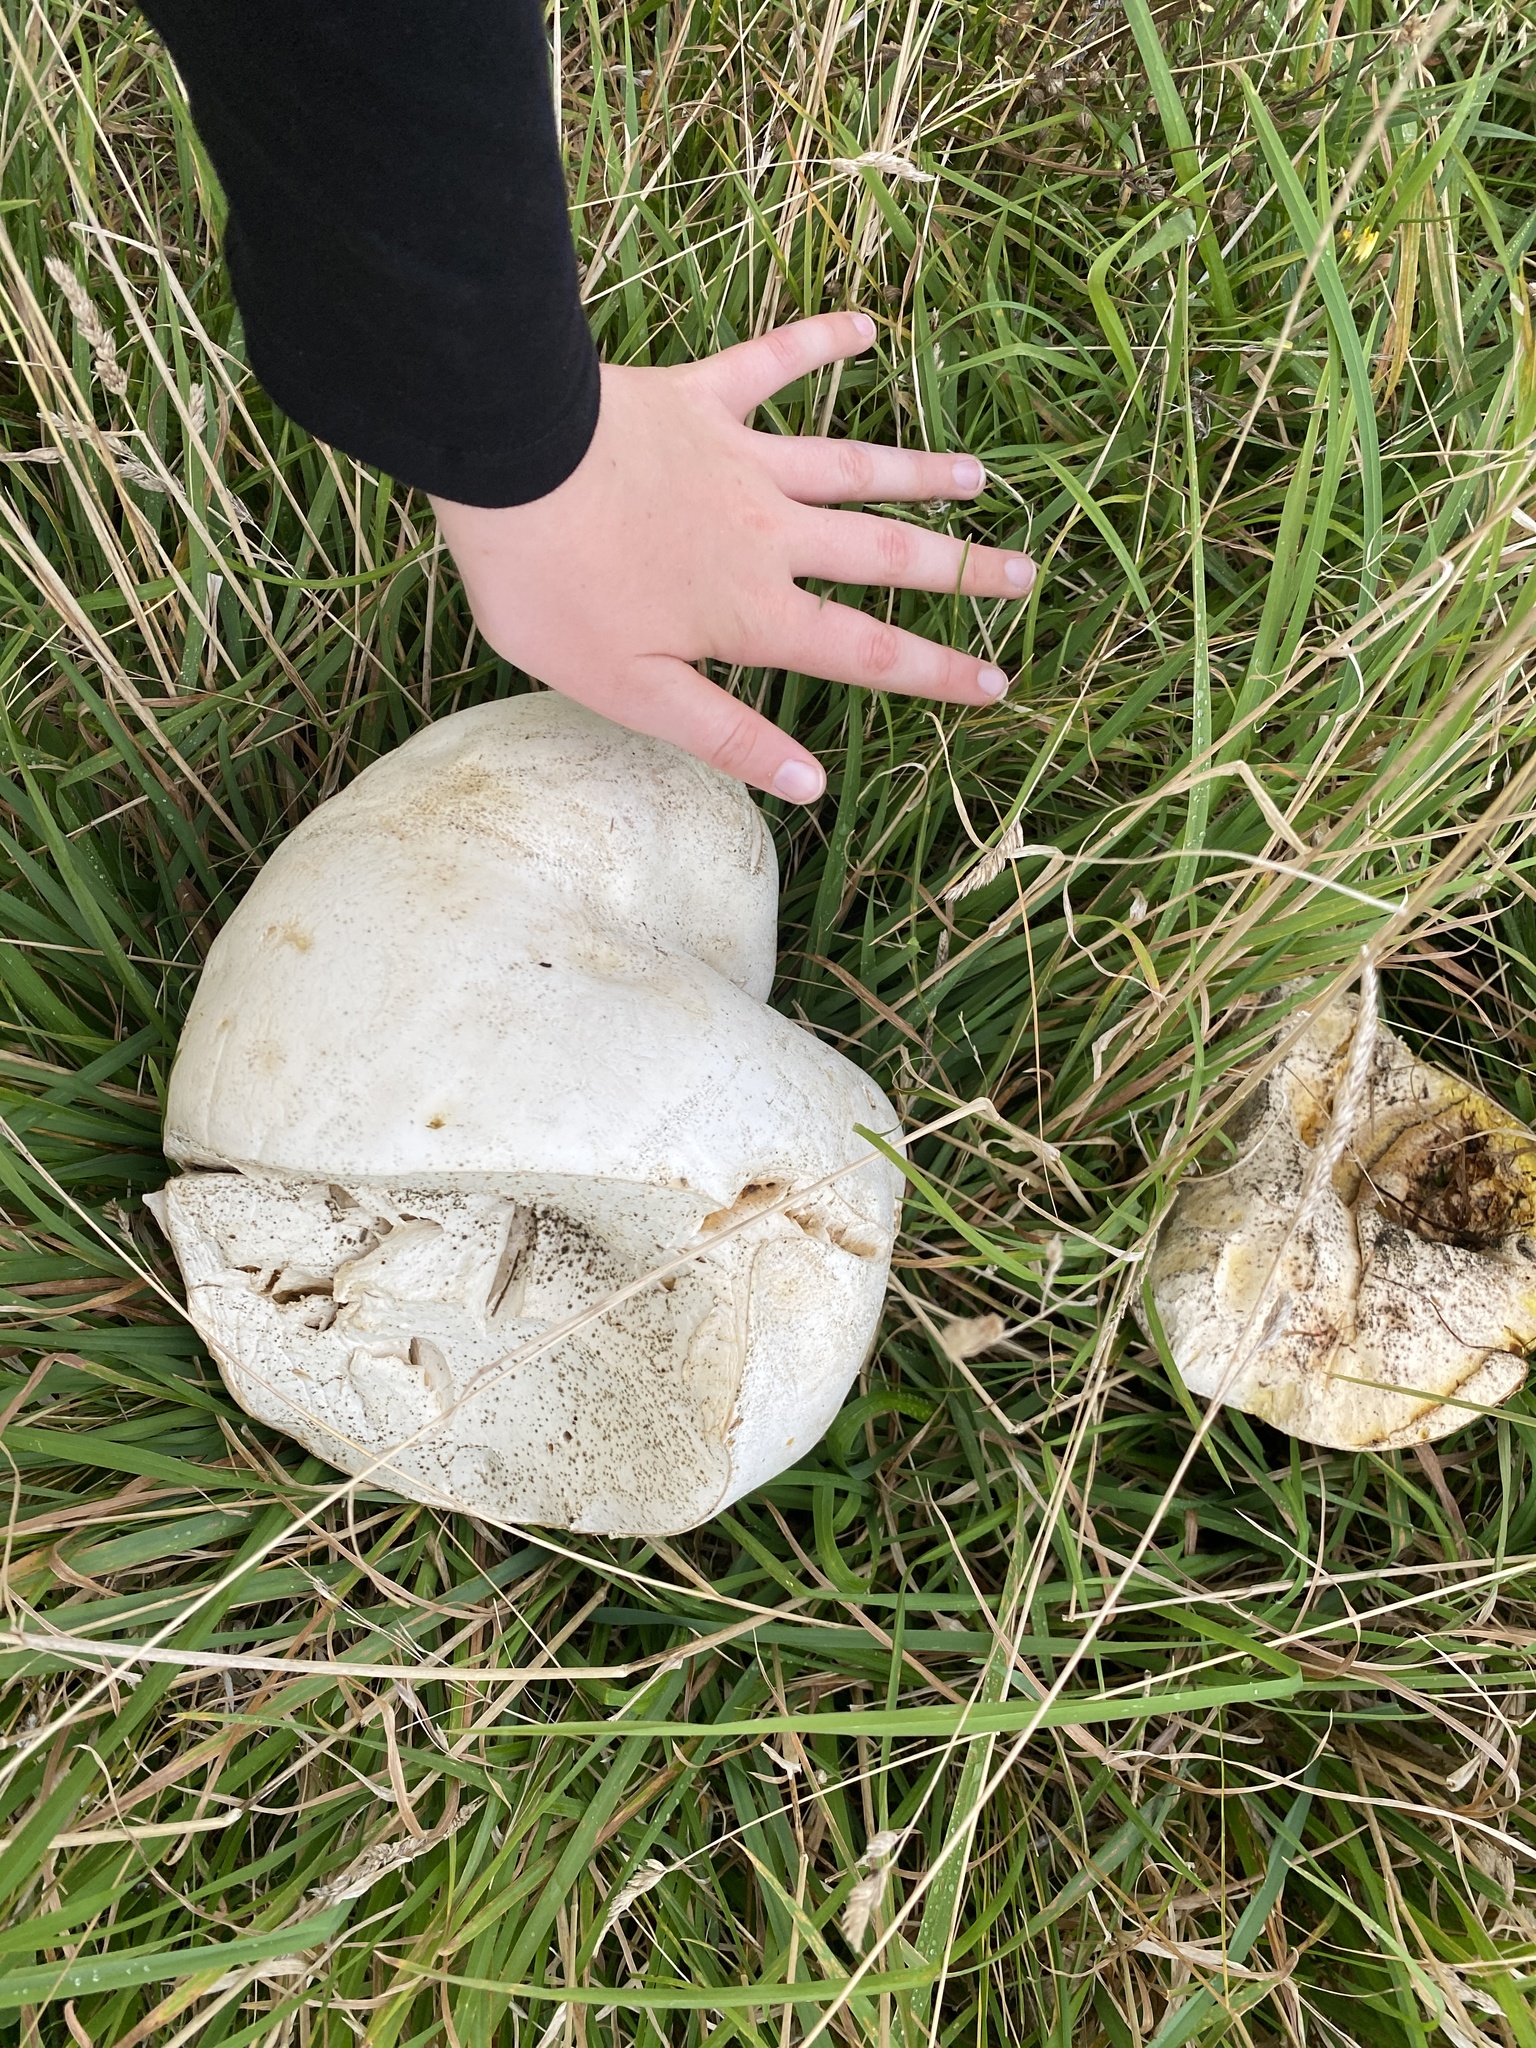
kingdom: Fungi
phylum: Basidiomycota
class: Agaricomycetes
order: Agaricales
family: Lycoperdaceae
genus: Calvatia
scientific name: Calvatia gigantea
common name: Giant puffball
